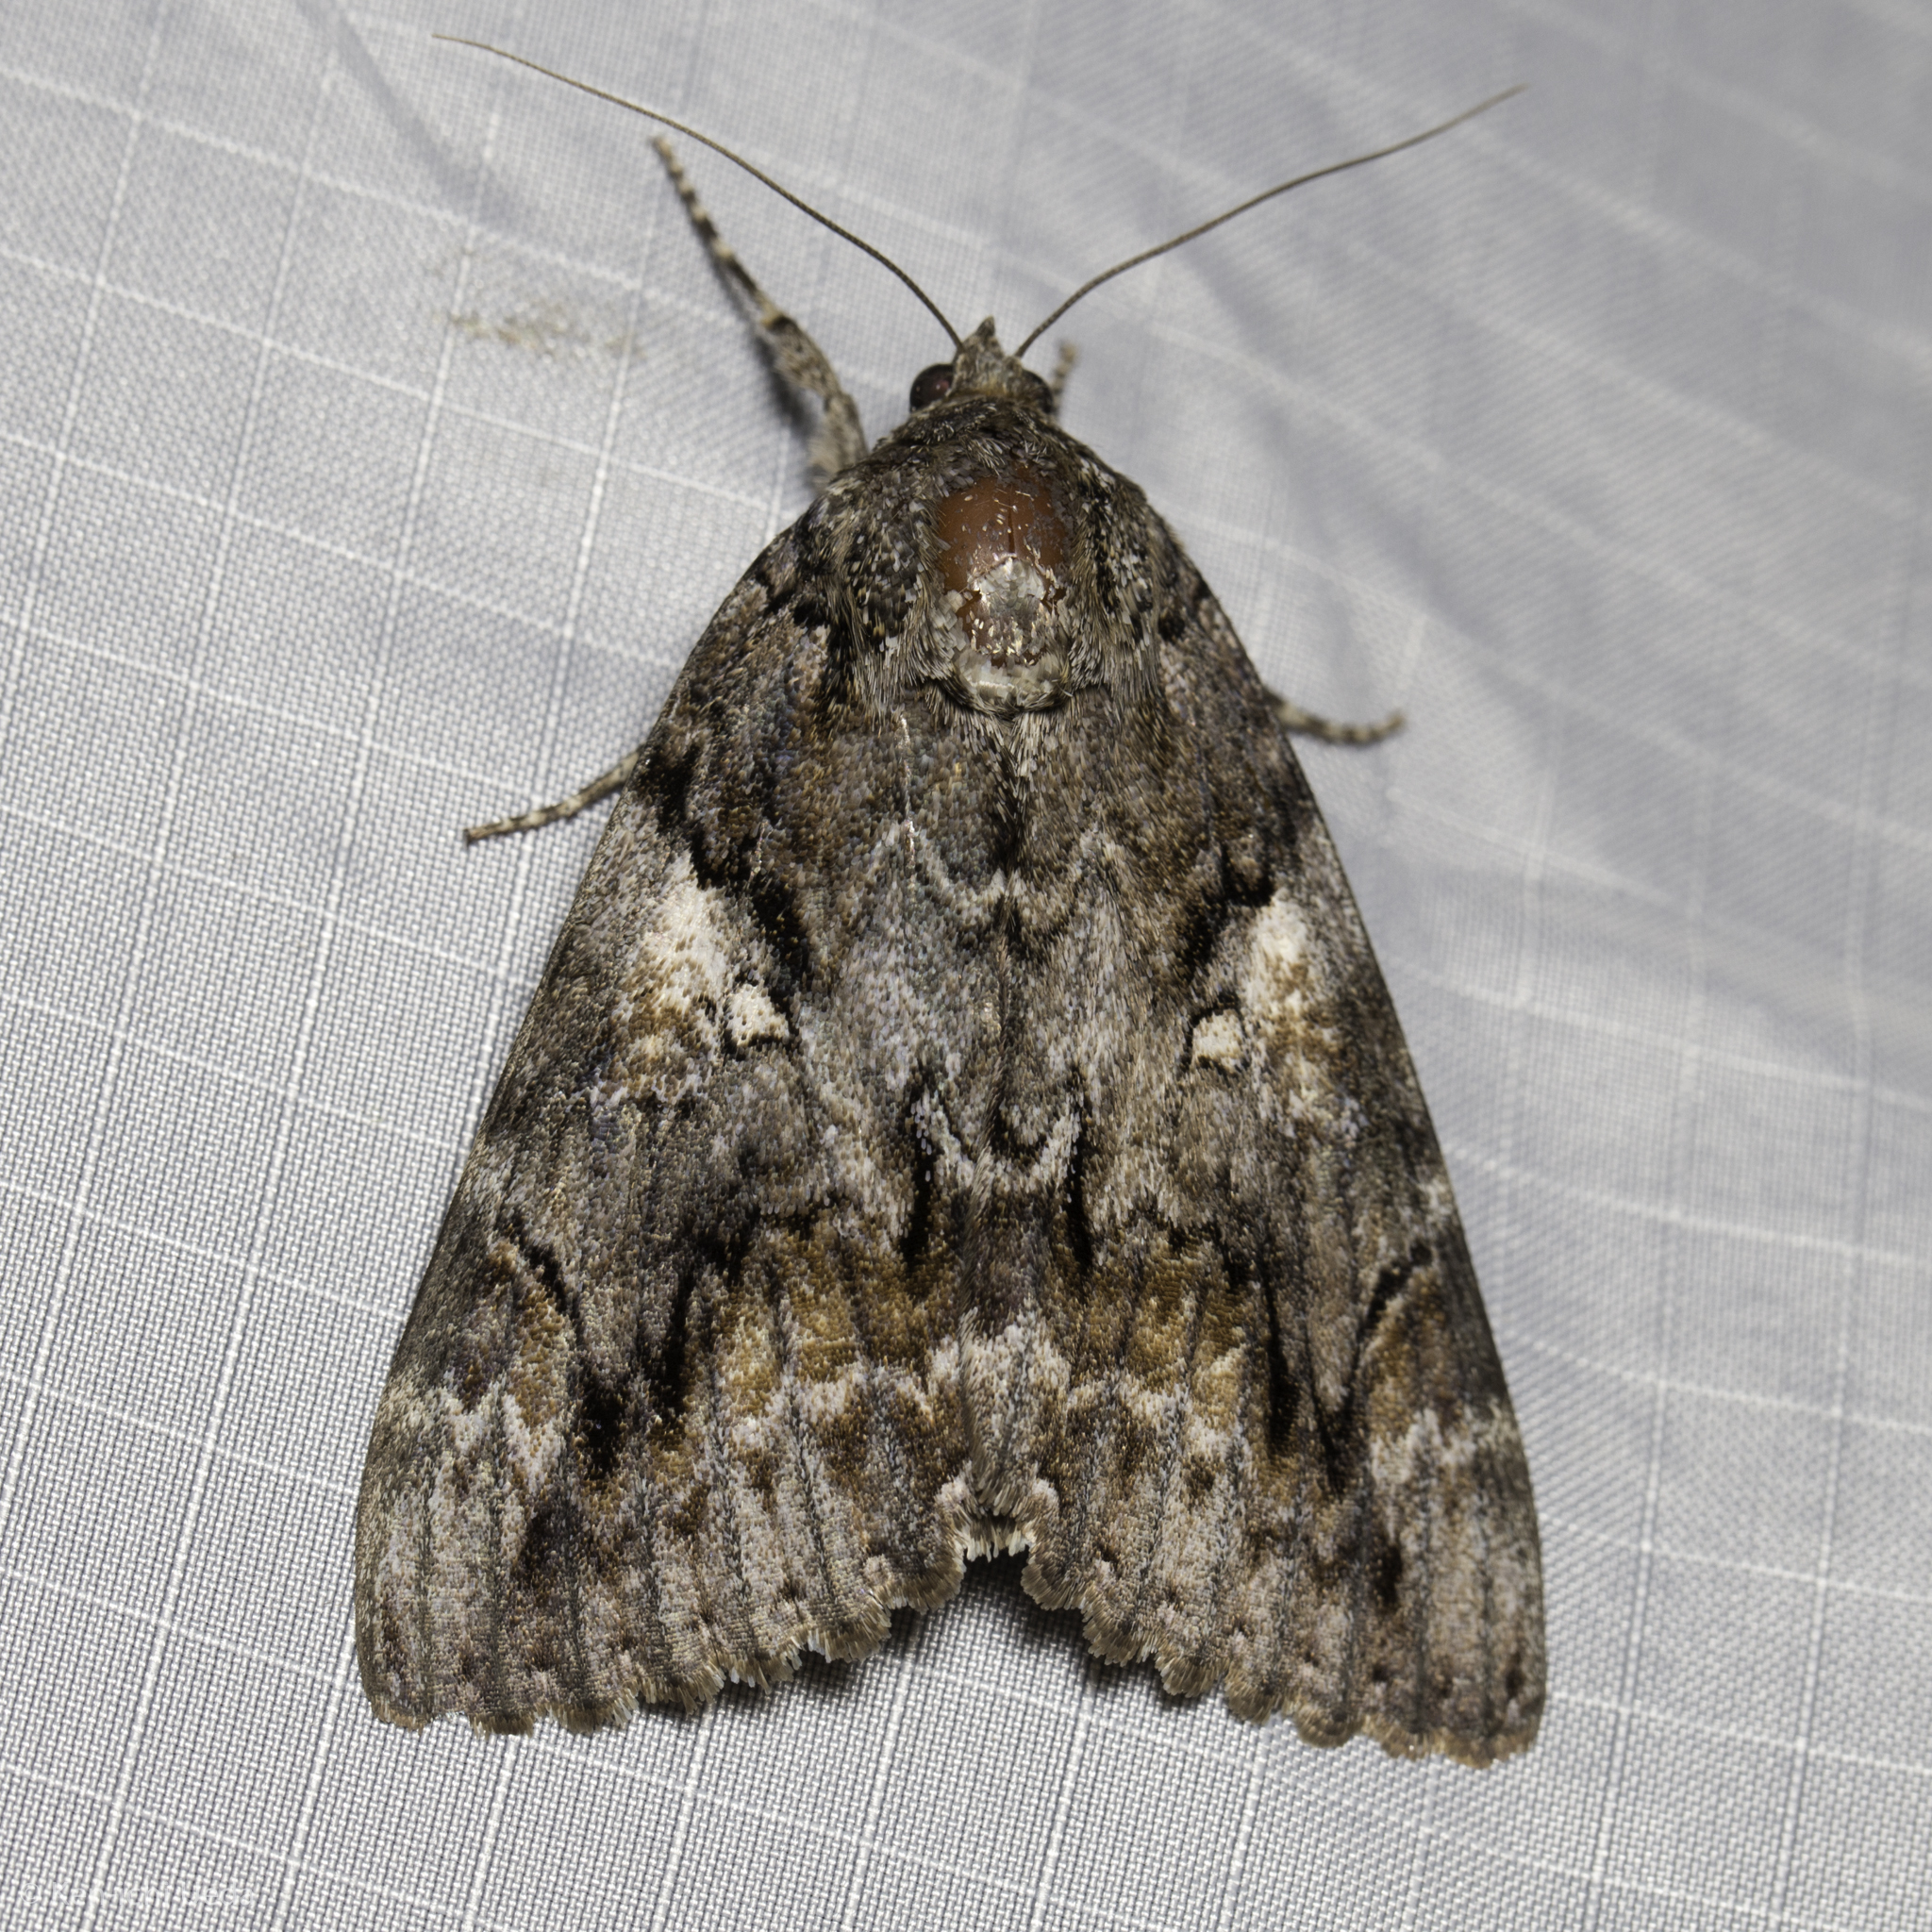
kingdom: Animalia
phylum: Arthropoda
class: Insecta
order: Lepidoptera
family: Erebidae
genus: Catocala
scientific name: Catocala aholibah
